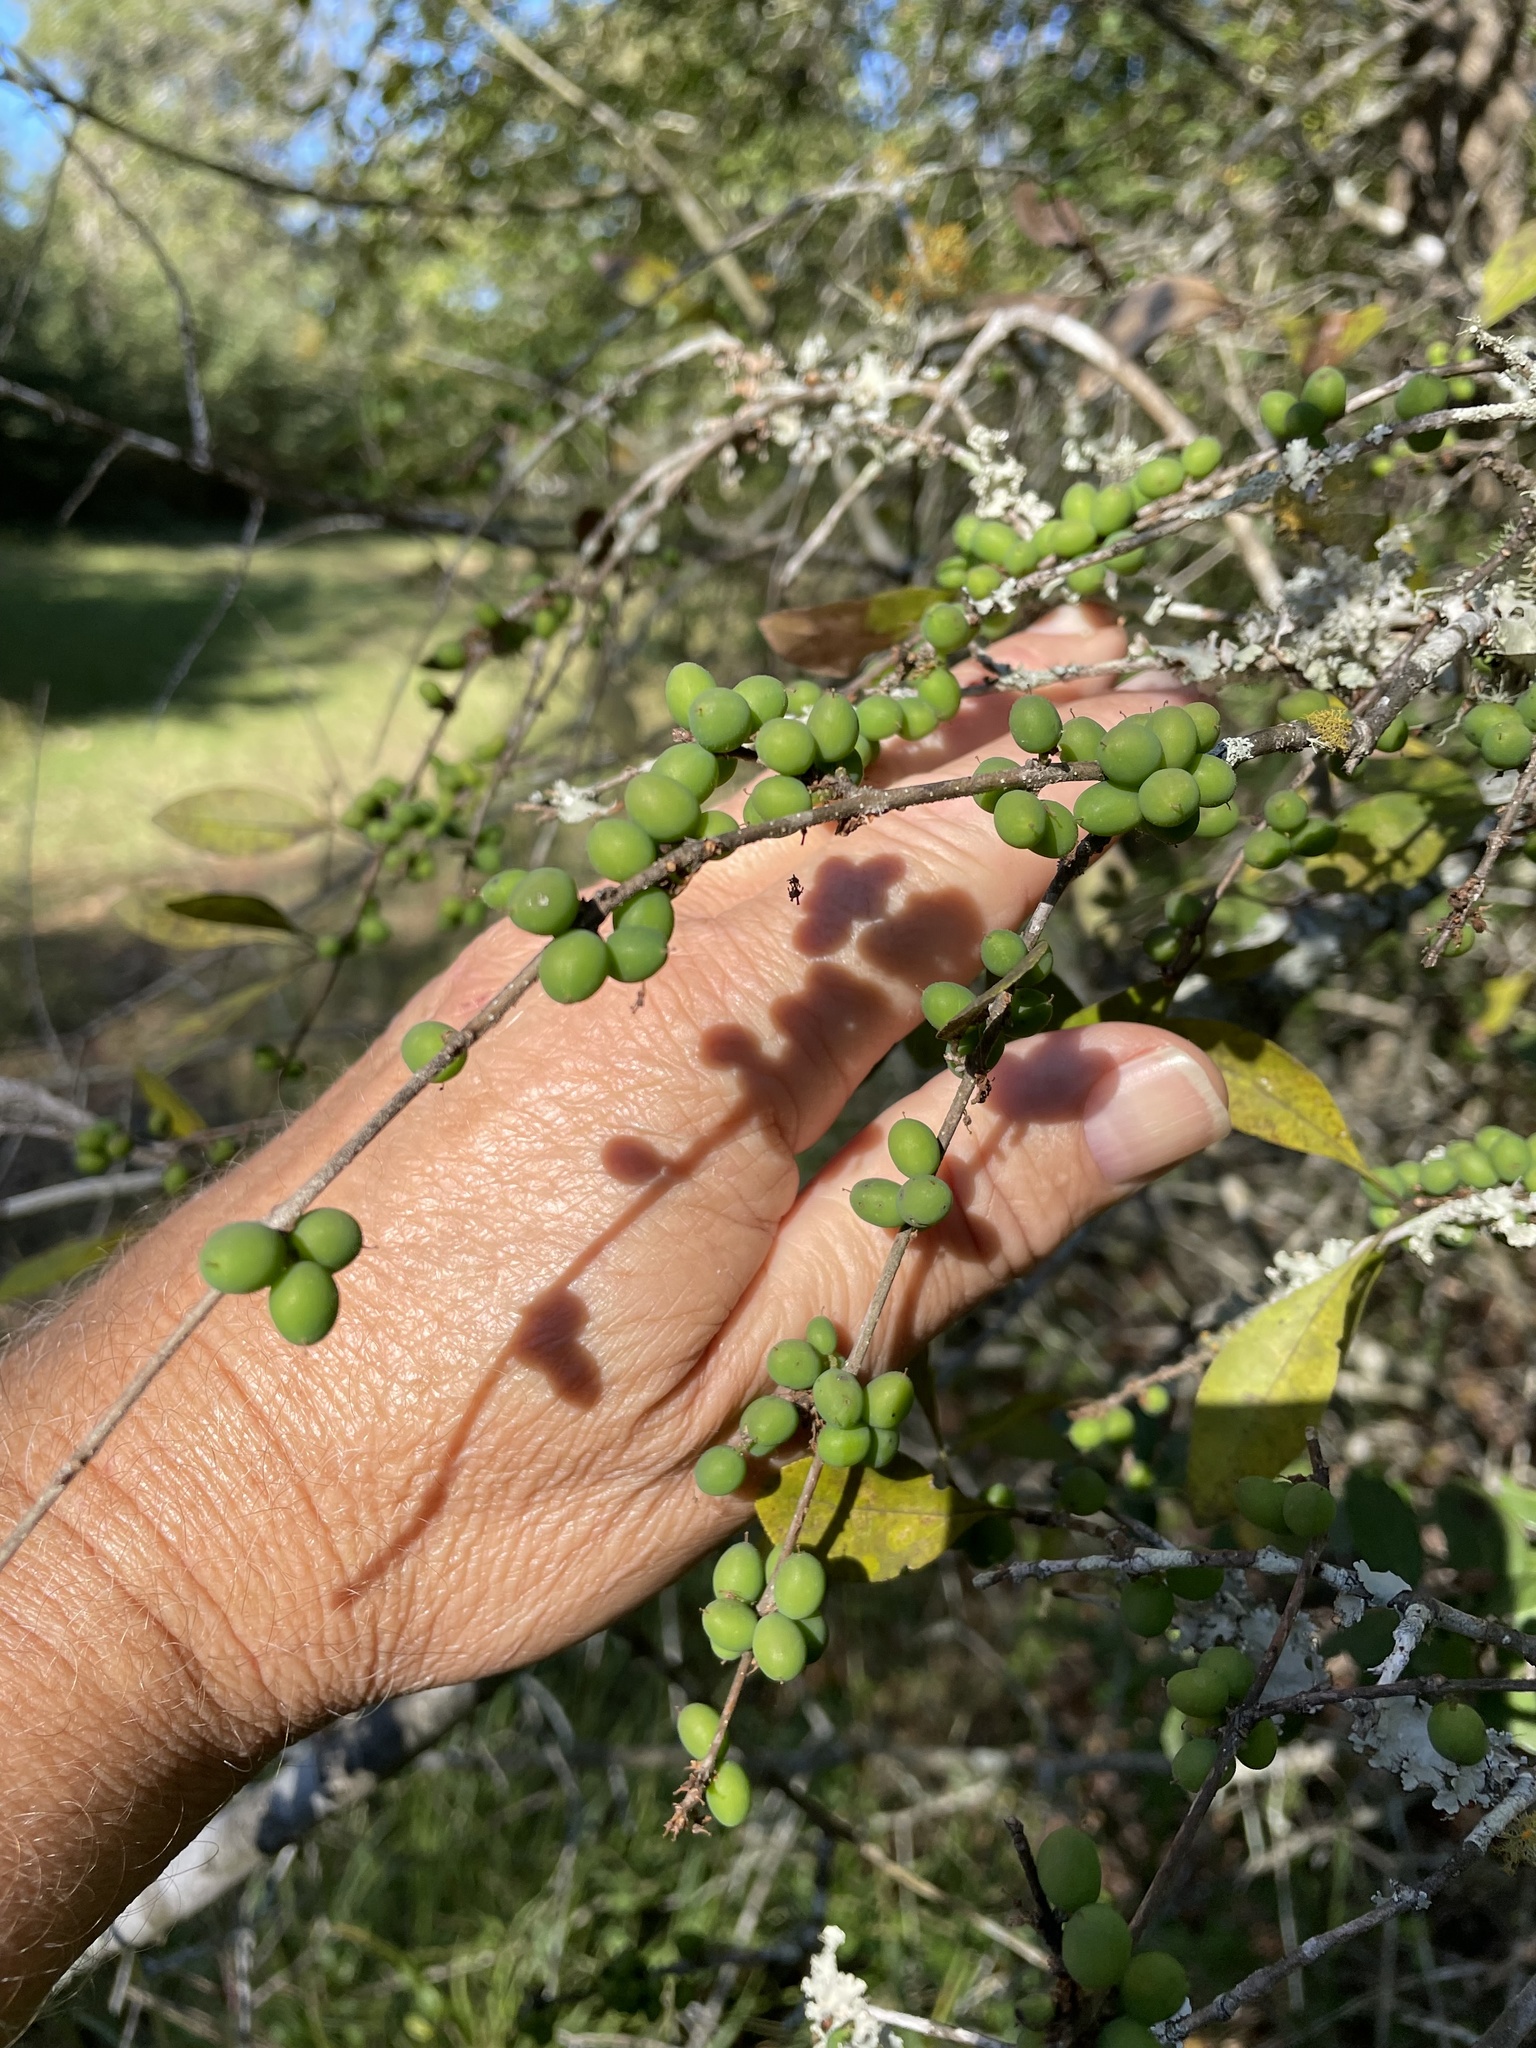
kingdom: Plantae
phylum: Tracheophyta
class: Magnoliopsida
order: Lamiales
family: Oleaceae
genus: Forestiera
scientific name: Forestiera ligustrina
